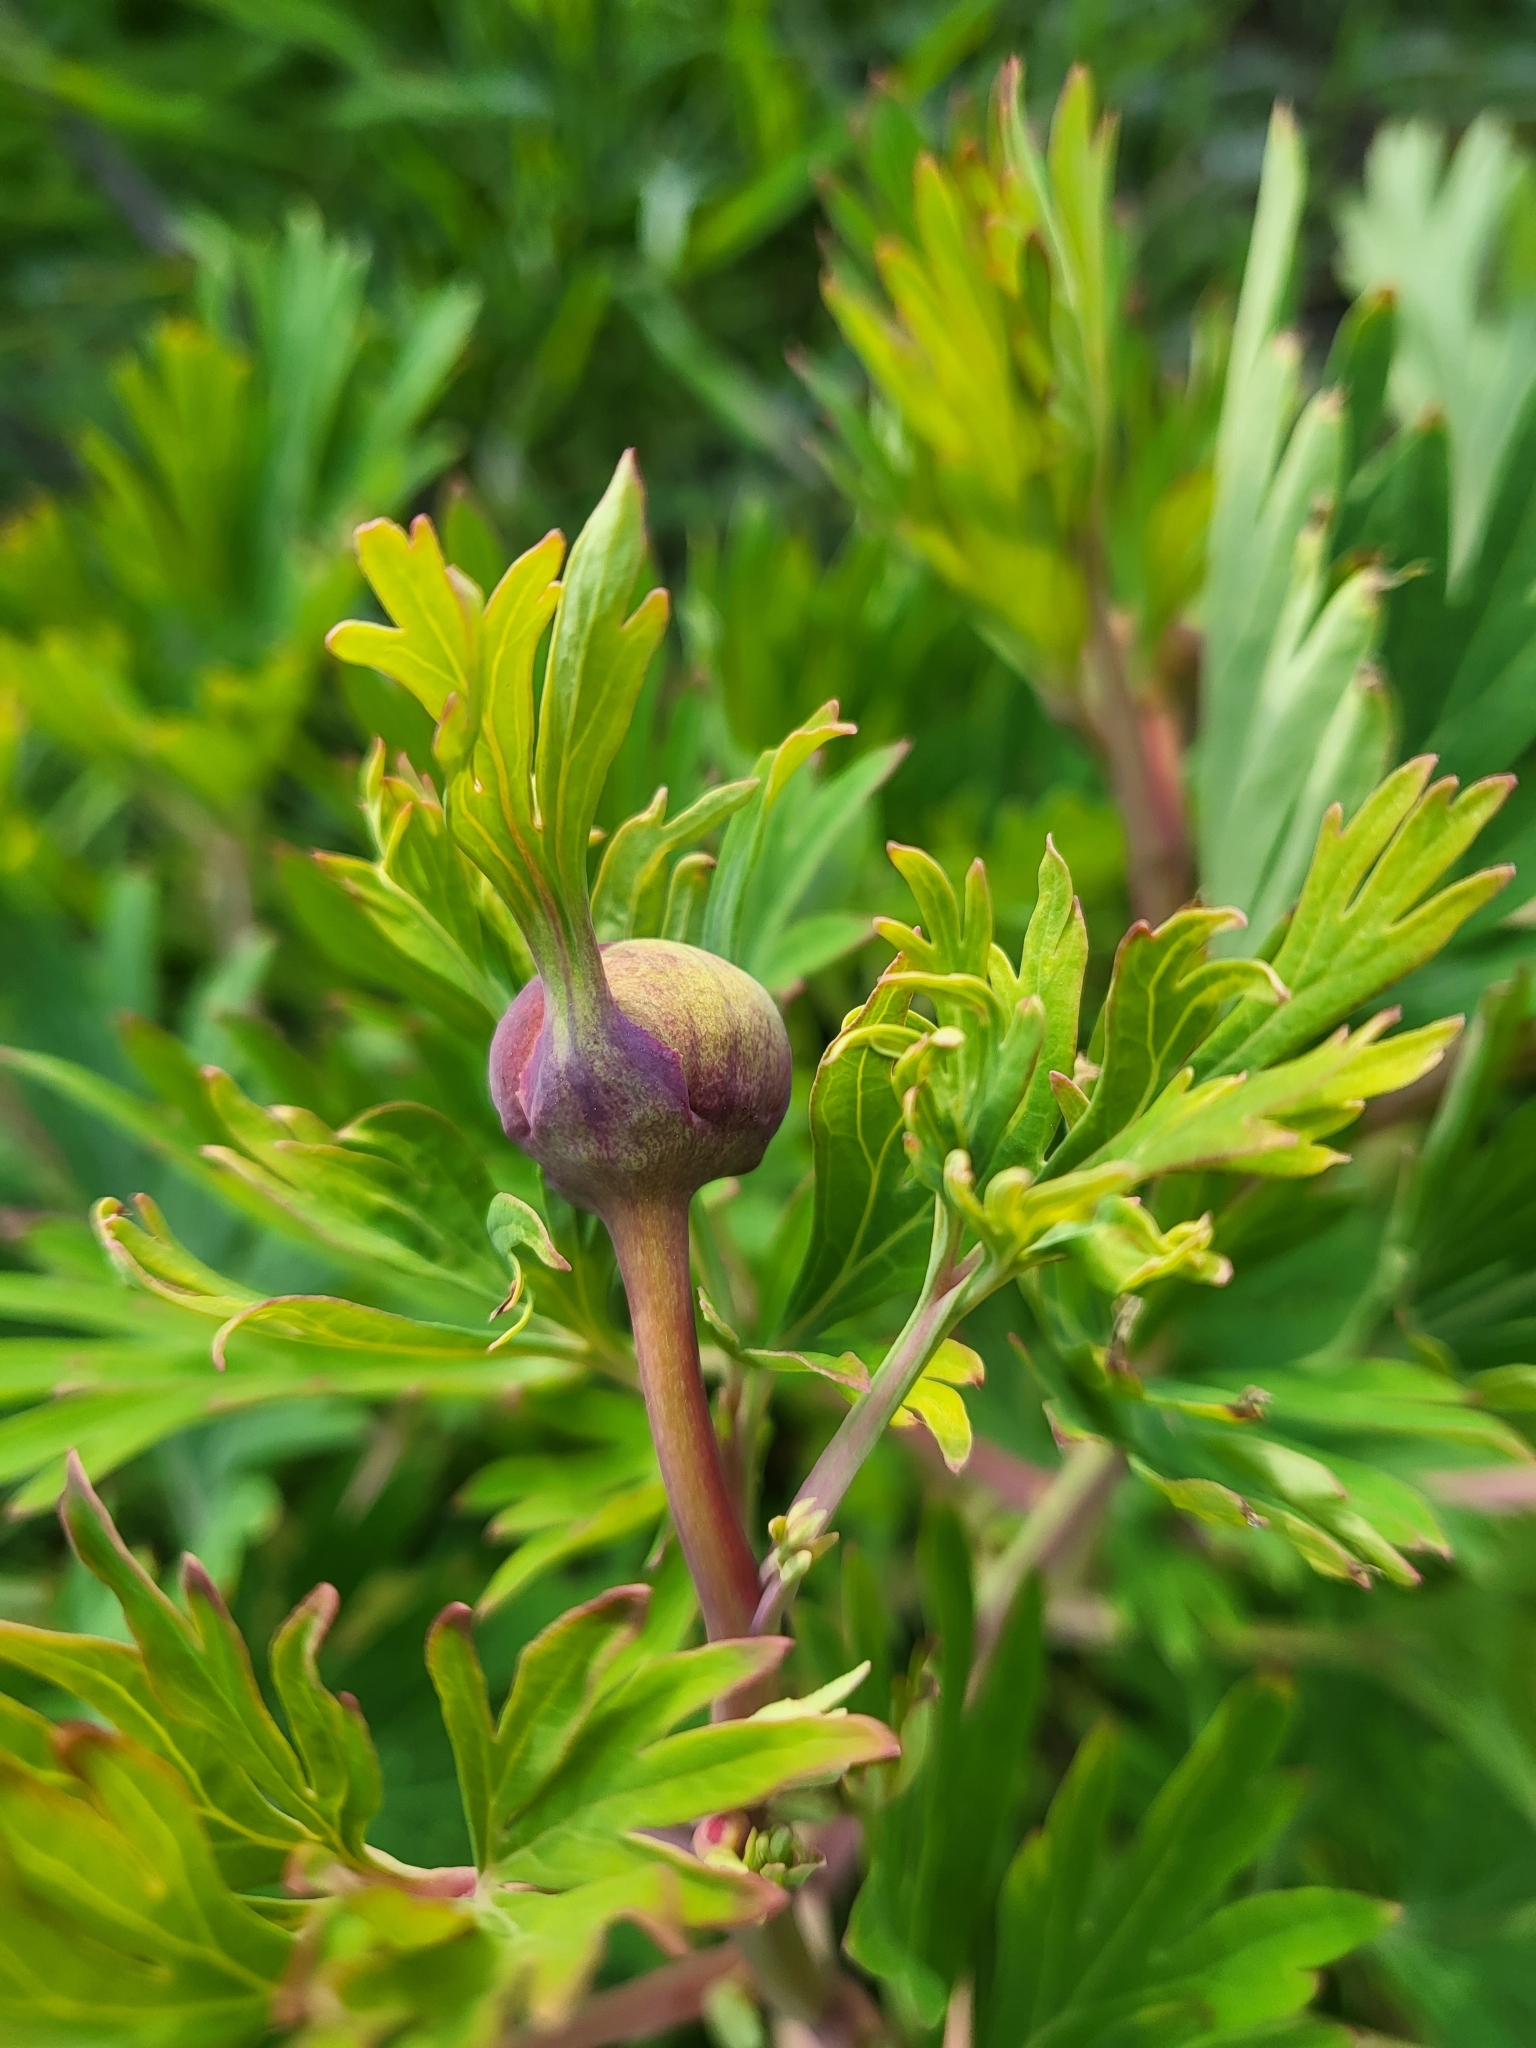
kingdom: Plantae
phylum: Tracheophyta
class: Magnoliopsida
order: Saxifragales
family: Paeoniaceae
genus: Paeonia
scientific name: Paeonia californica
